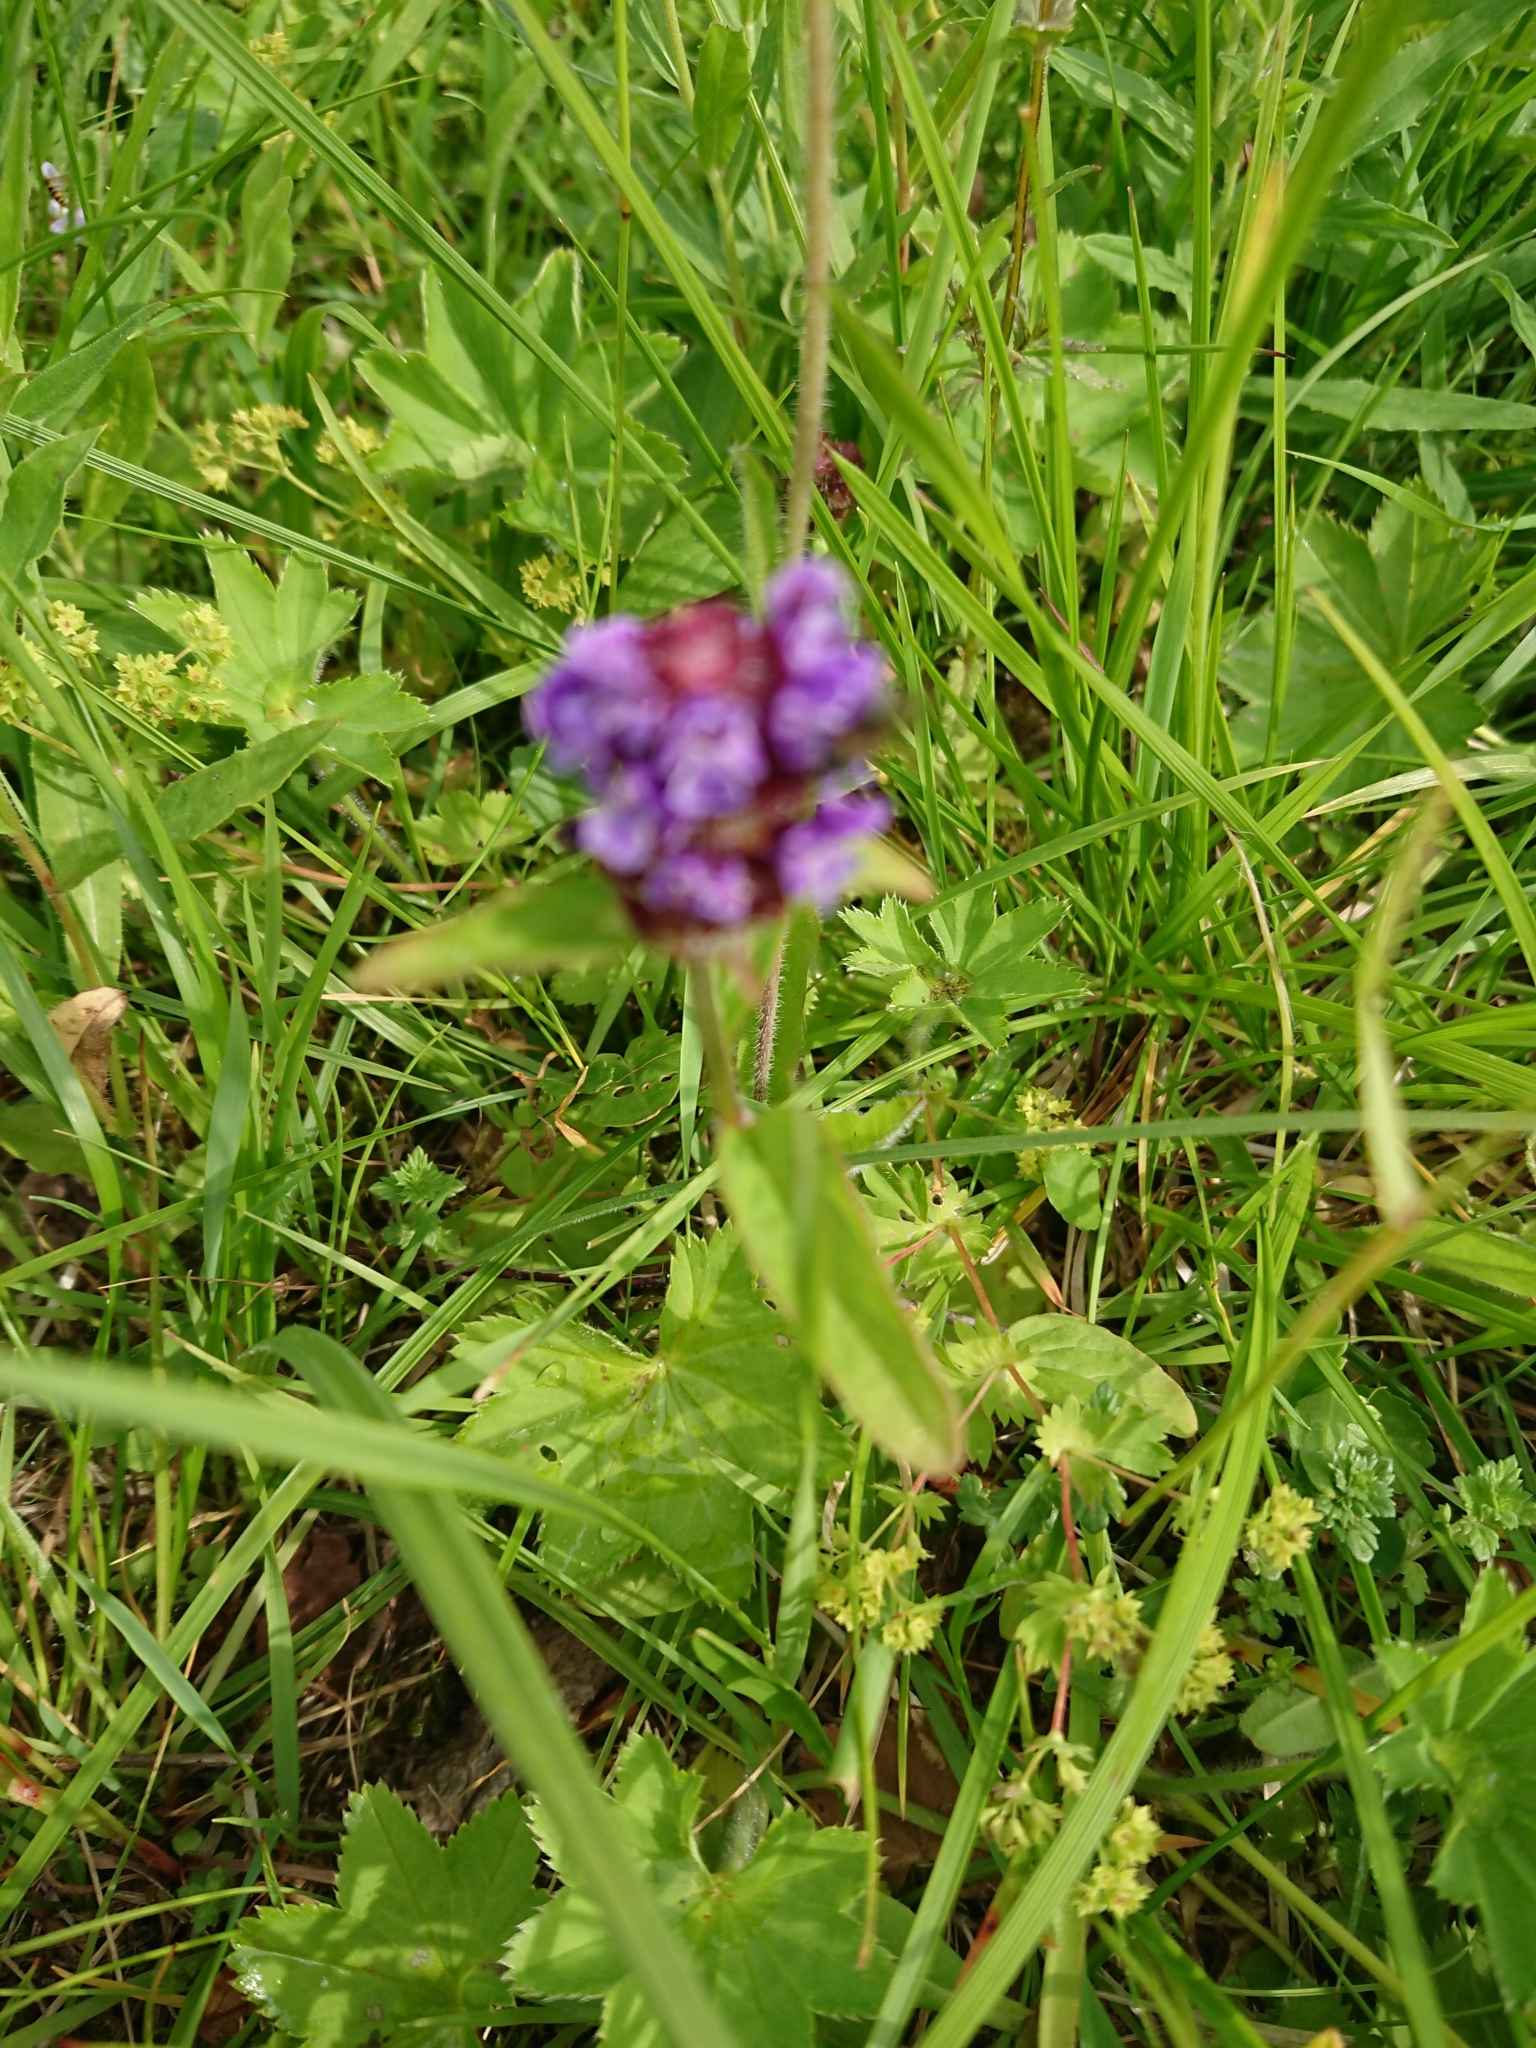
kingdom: Plantae
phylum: Tracheophyta
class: Magnoliopsida
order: Lamiales
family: Lamiaceae
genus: Prunella
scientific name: Prunella vulgaris
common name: Heal-all
